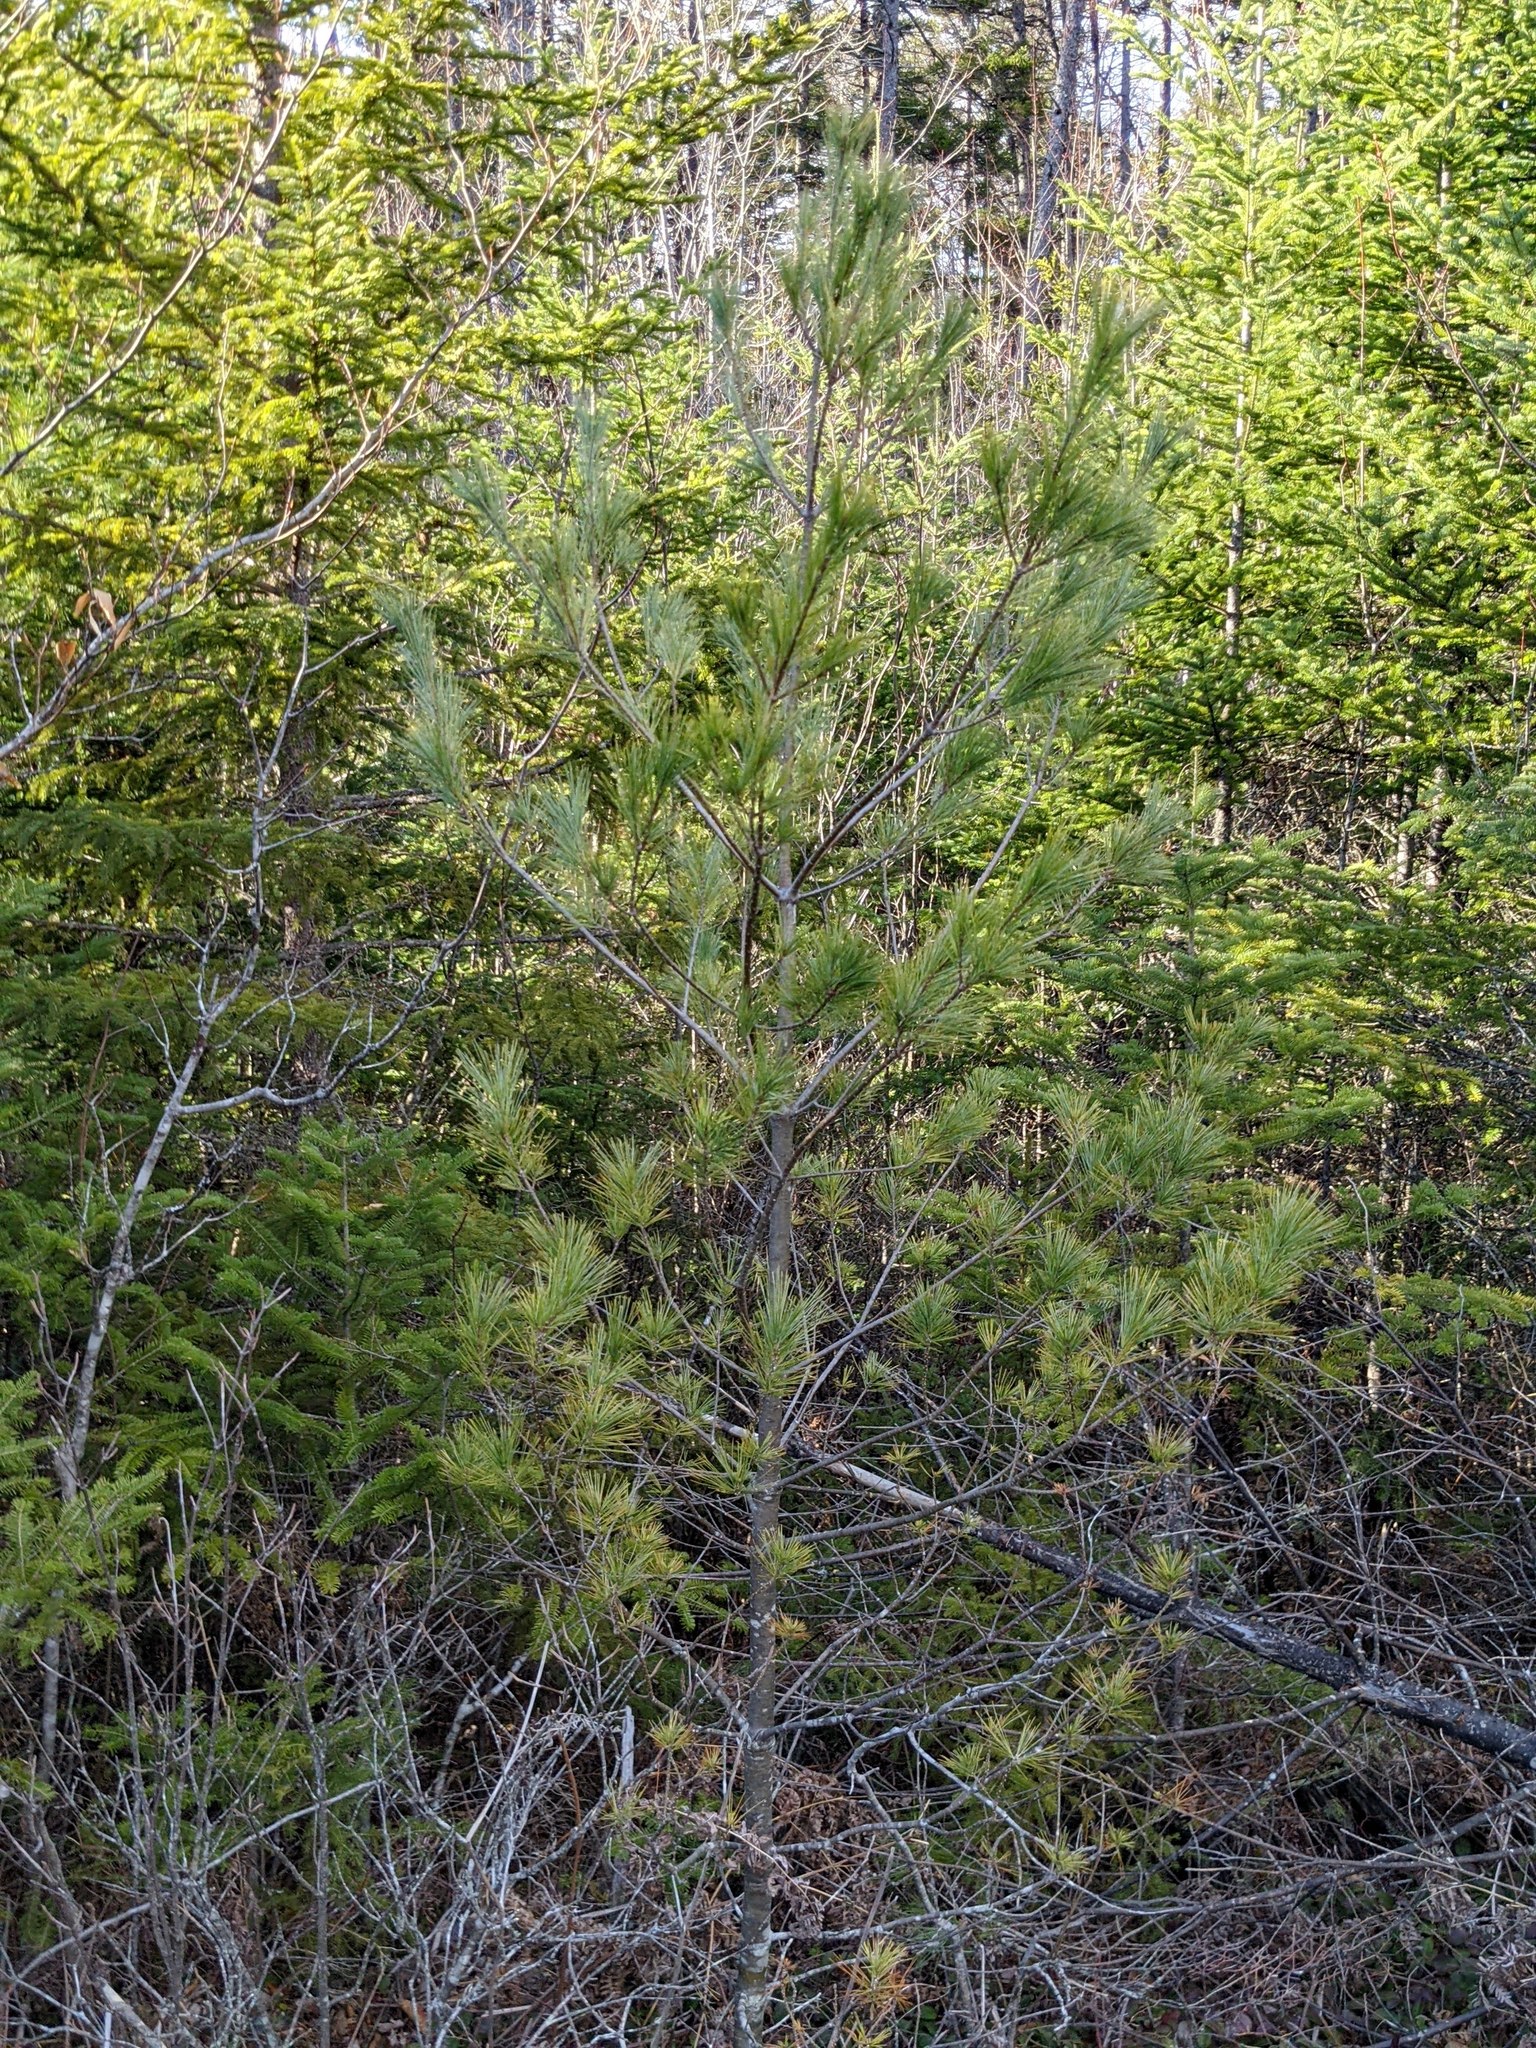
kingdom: Plantae
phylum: Tracheophyta
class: Pinopsida
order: Pinales
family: Pinaceae
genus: Pinus
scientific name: Pinus strobus
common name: Weymouth pine
